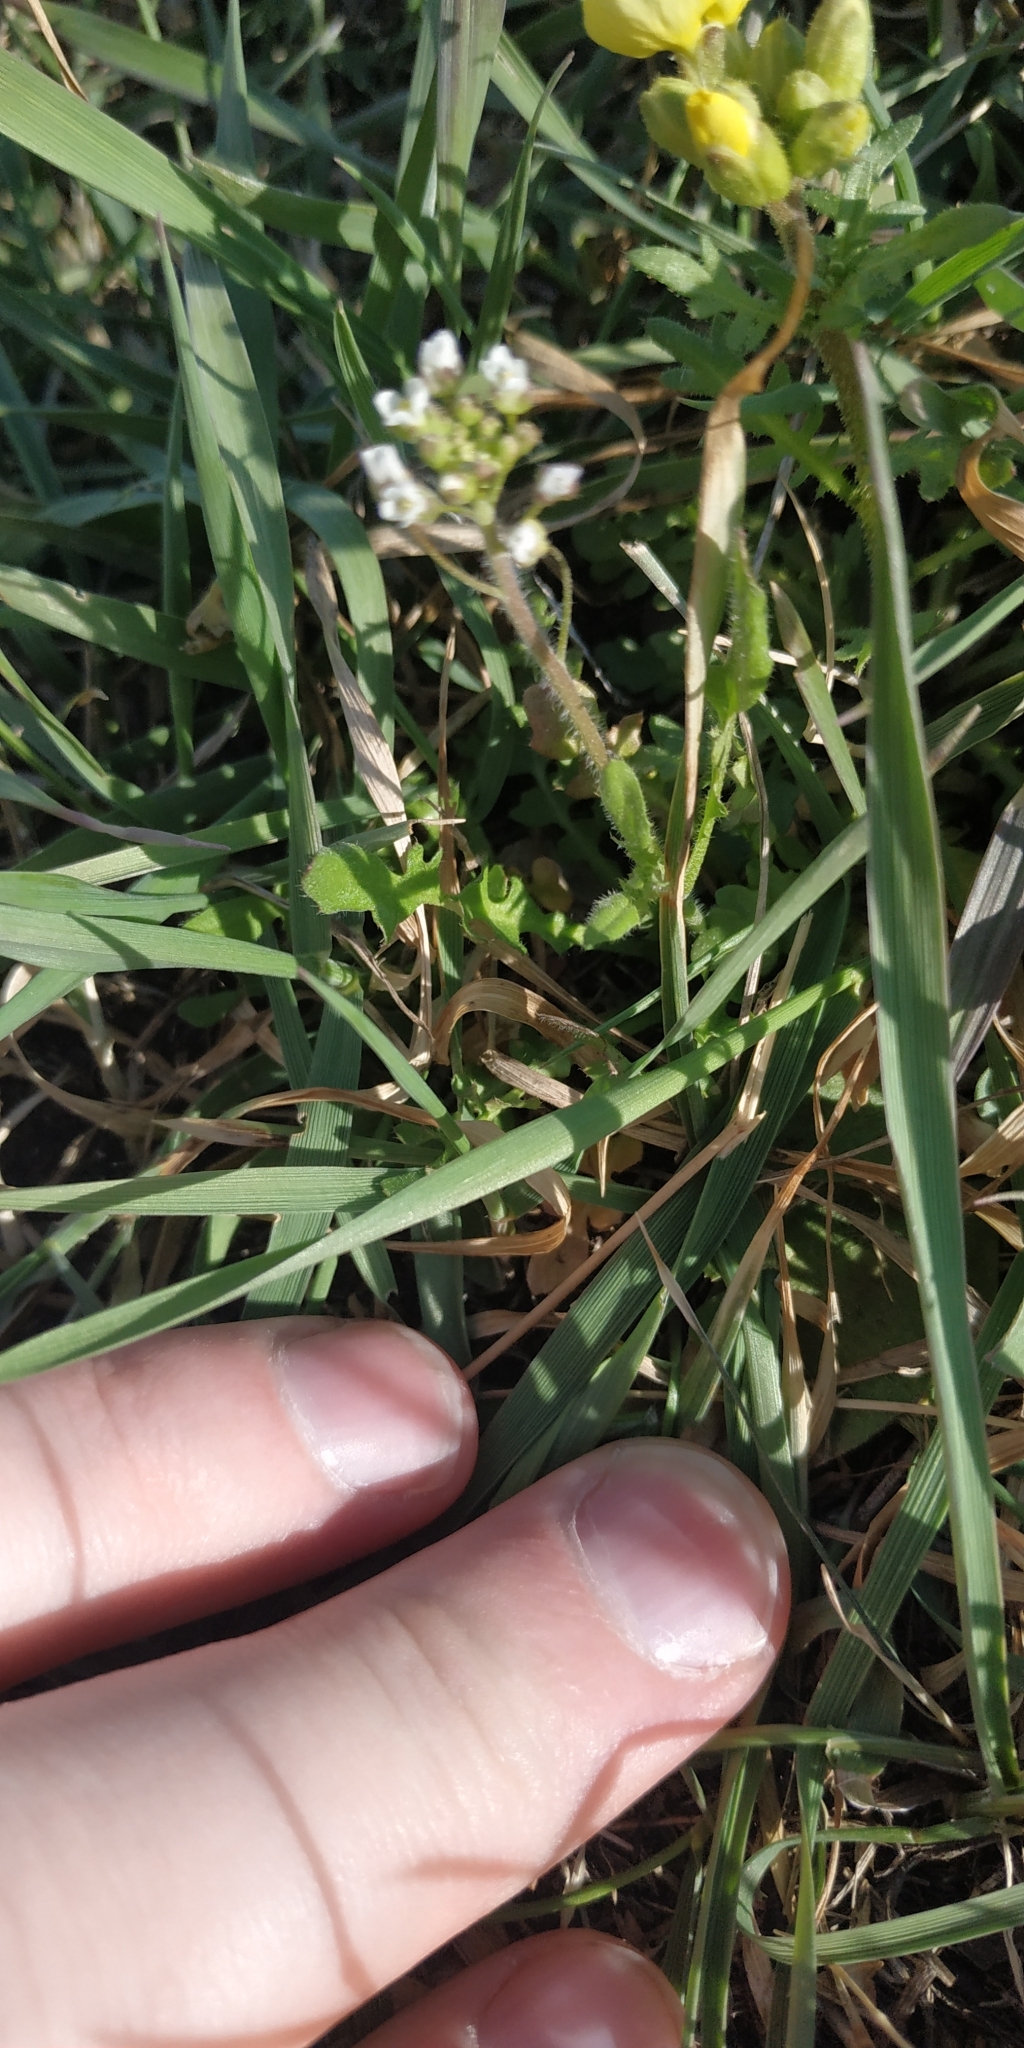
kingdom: Plantae
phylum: Tracheophyta
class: Magnoliopsida
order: Brassicales
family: Brassicaceae
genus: Capsella
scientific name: Capsella bursa-pastoris
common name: Shepherd's purse
